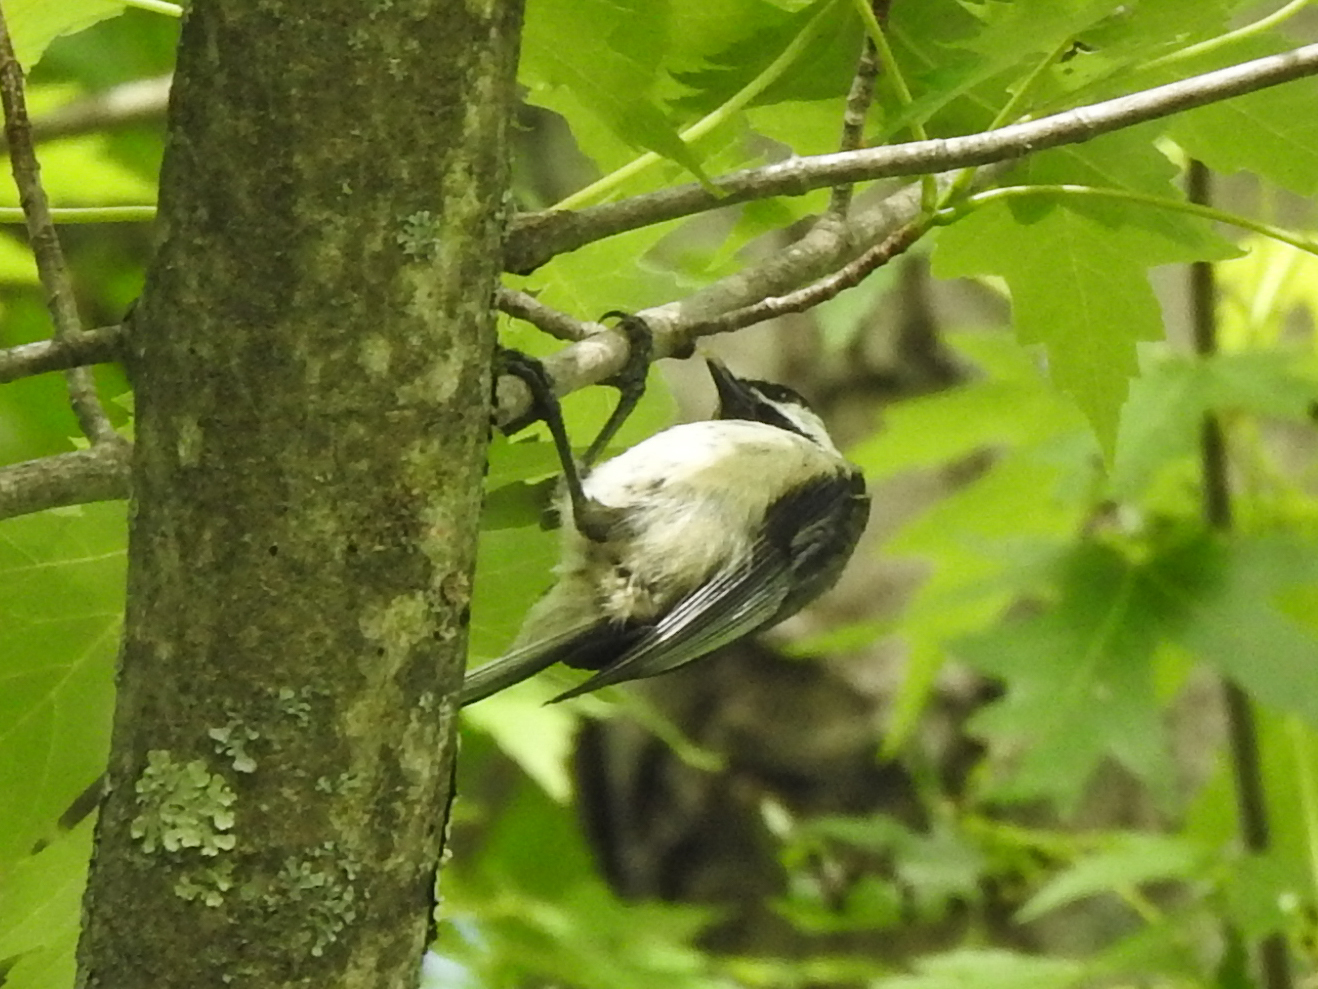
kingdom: Animalia
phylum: Chordata
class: Aves
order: Passeriformes
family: Paridae
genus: Poecile
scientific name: Poecile atricapillus
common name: Black-capped chickadee
